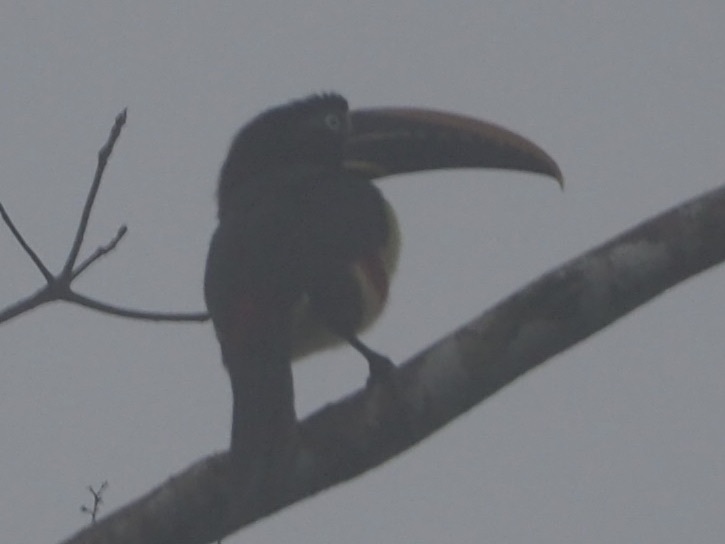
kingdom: Animalia
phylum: Chordata
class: Aves
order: Piciformes
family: Ramphastidae
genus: Pteroglossus
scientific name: Pteroglossus castanotis
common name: Chestnut-eared aracari
